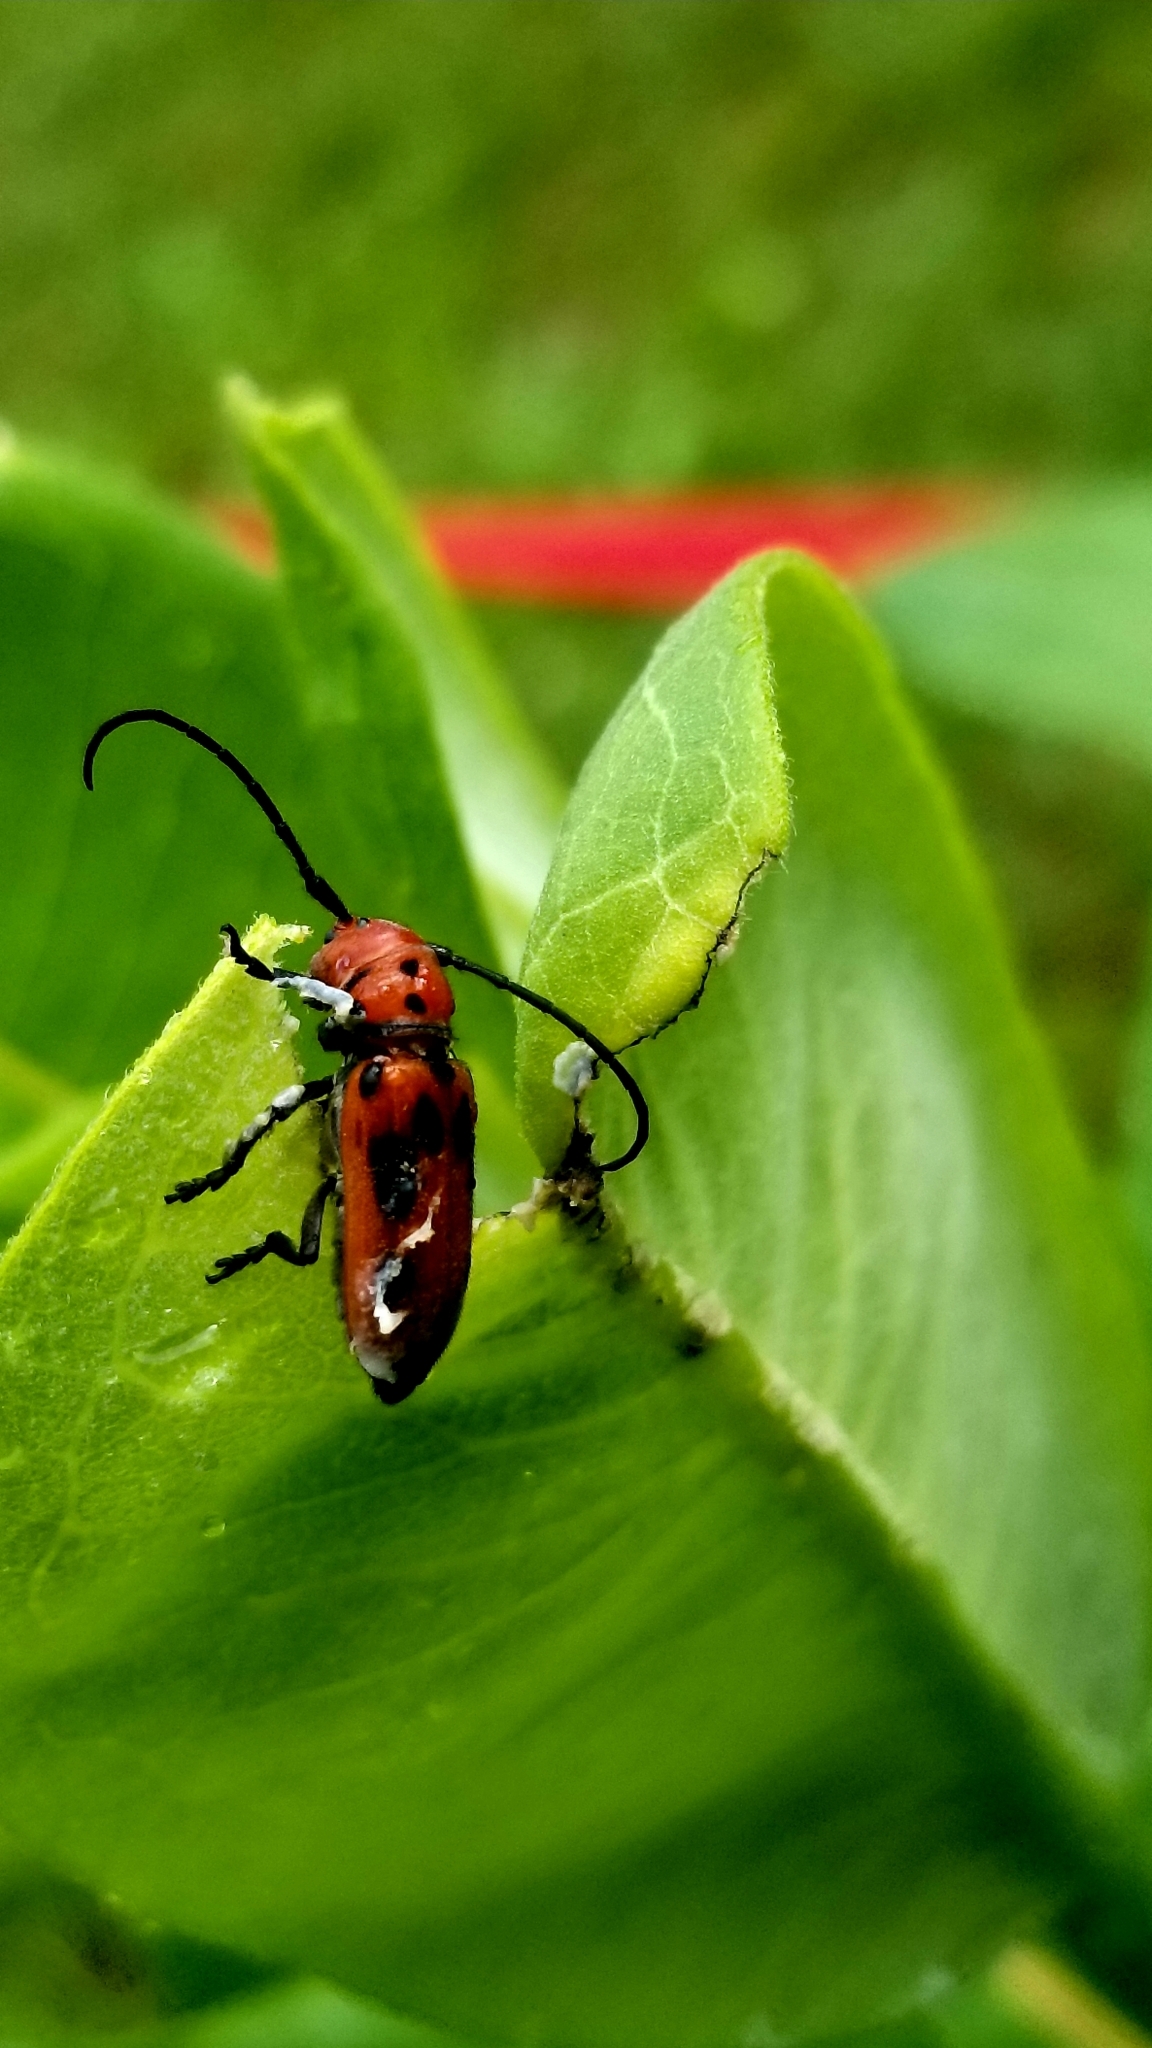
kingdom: Animalia
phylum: Arthropoda
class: Insecta
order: Coleoptera
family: Cerambycidae
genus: Tetraopes
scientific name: Tetraopes tetrophthalmus
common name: Red milkweed beetle
